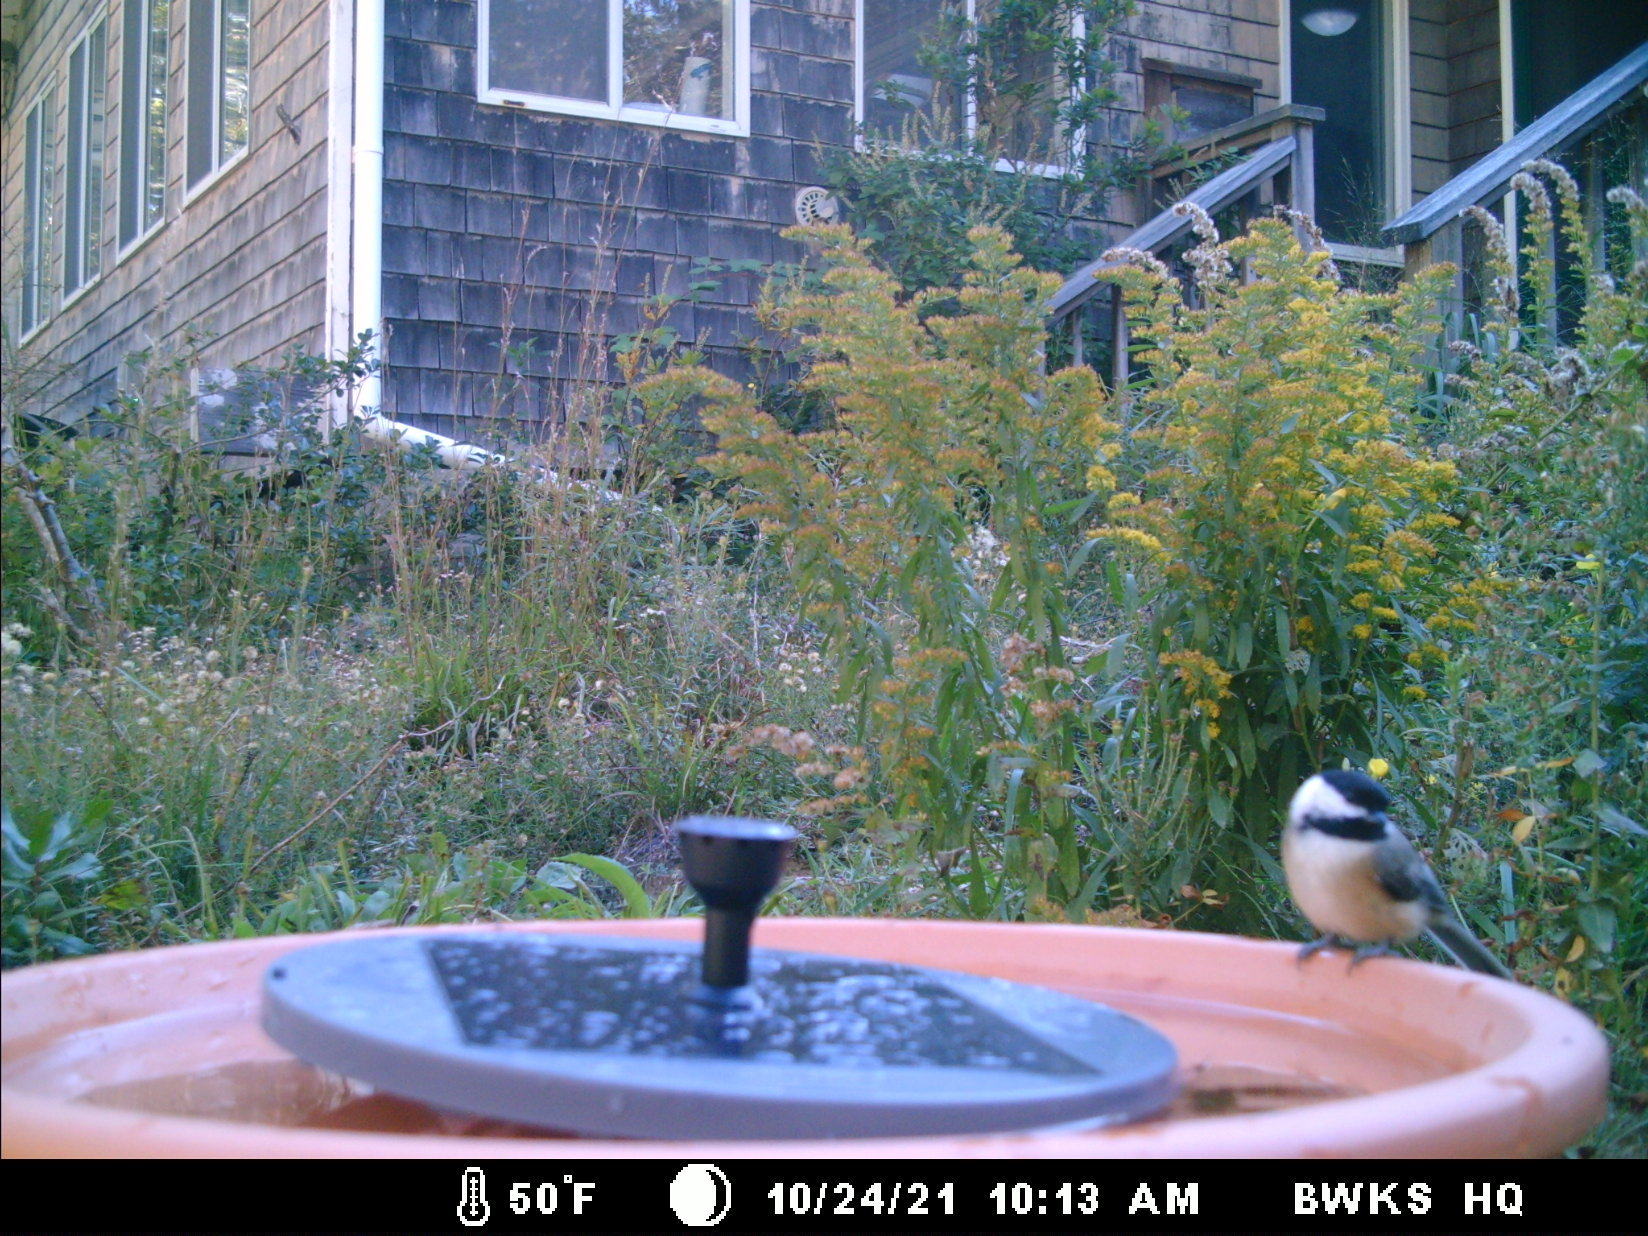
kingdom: Animalia
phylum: Chordata
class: Aves
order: Passeriformes
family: Paridae
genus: Poecile
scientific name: Poecile atricapillus
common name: Black-capped chickadee
